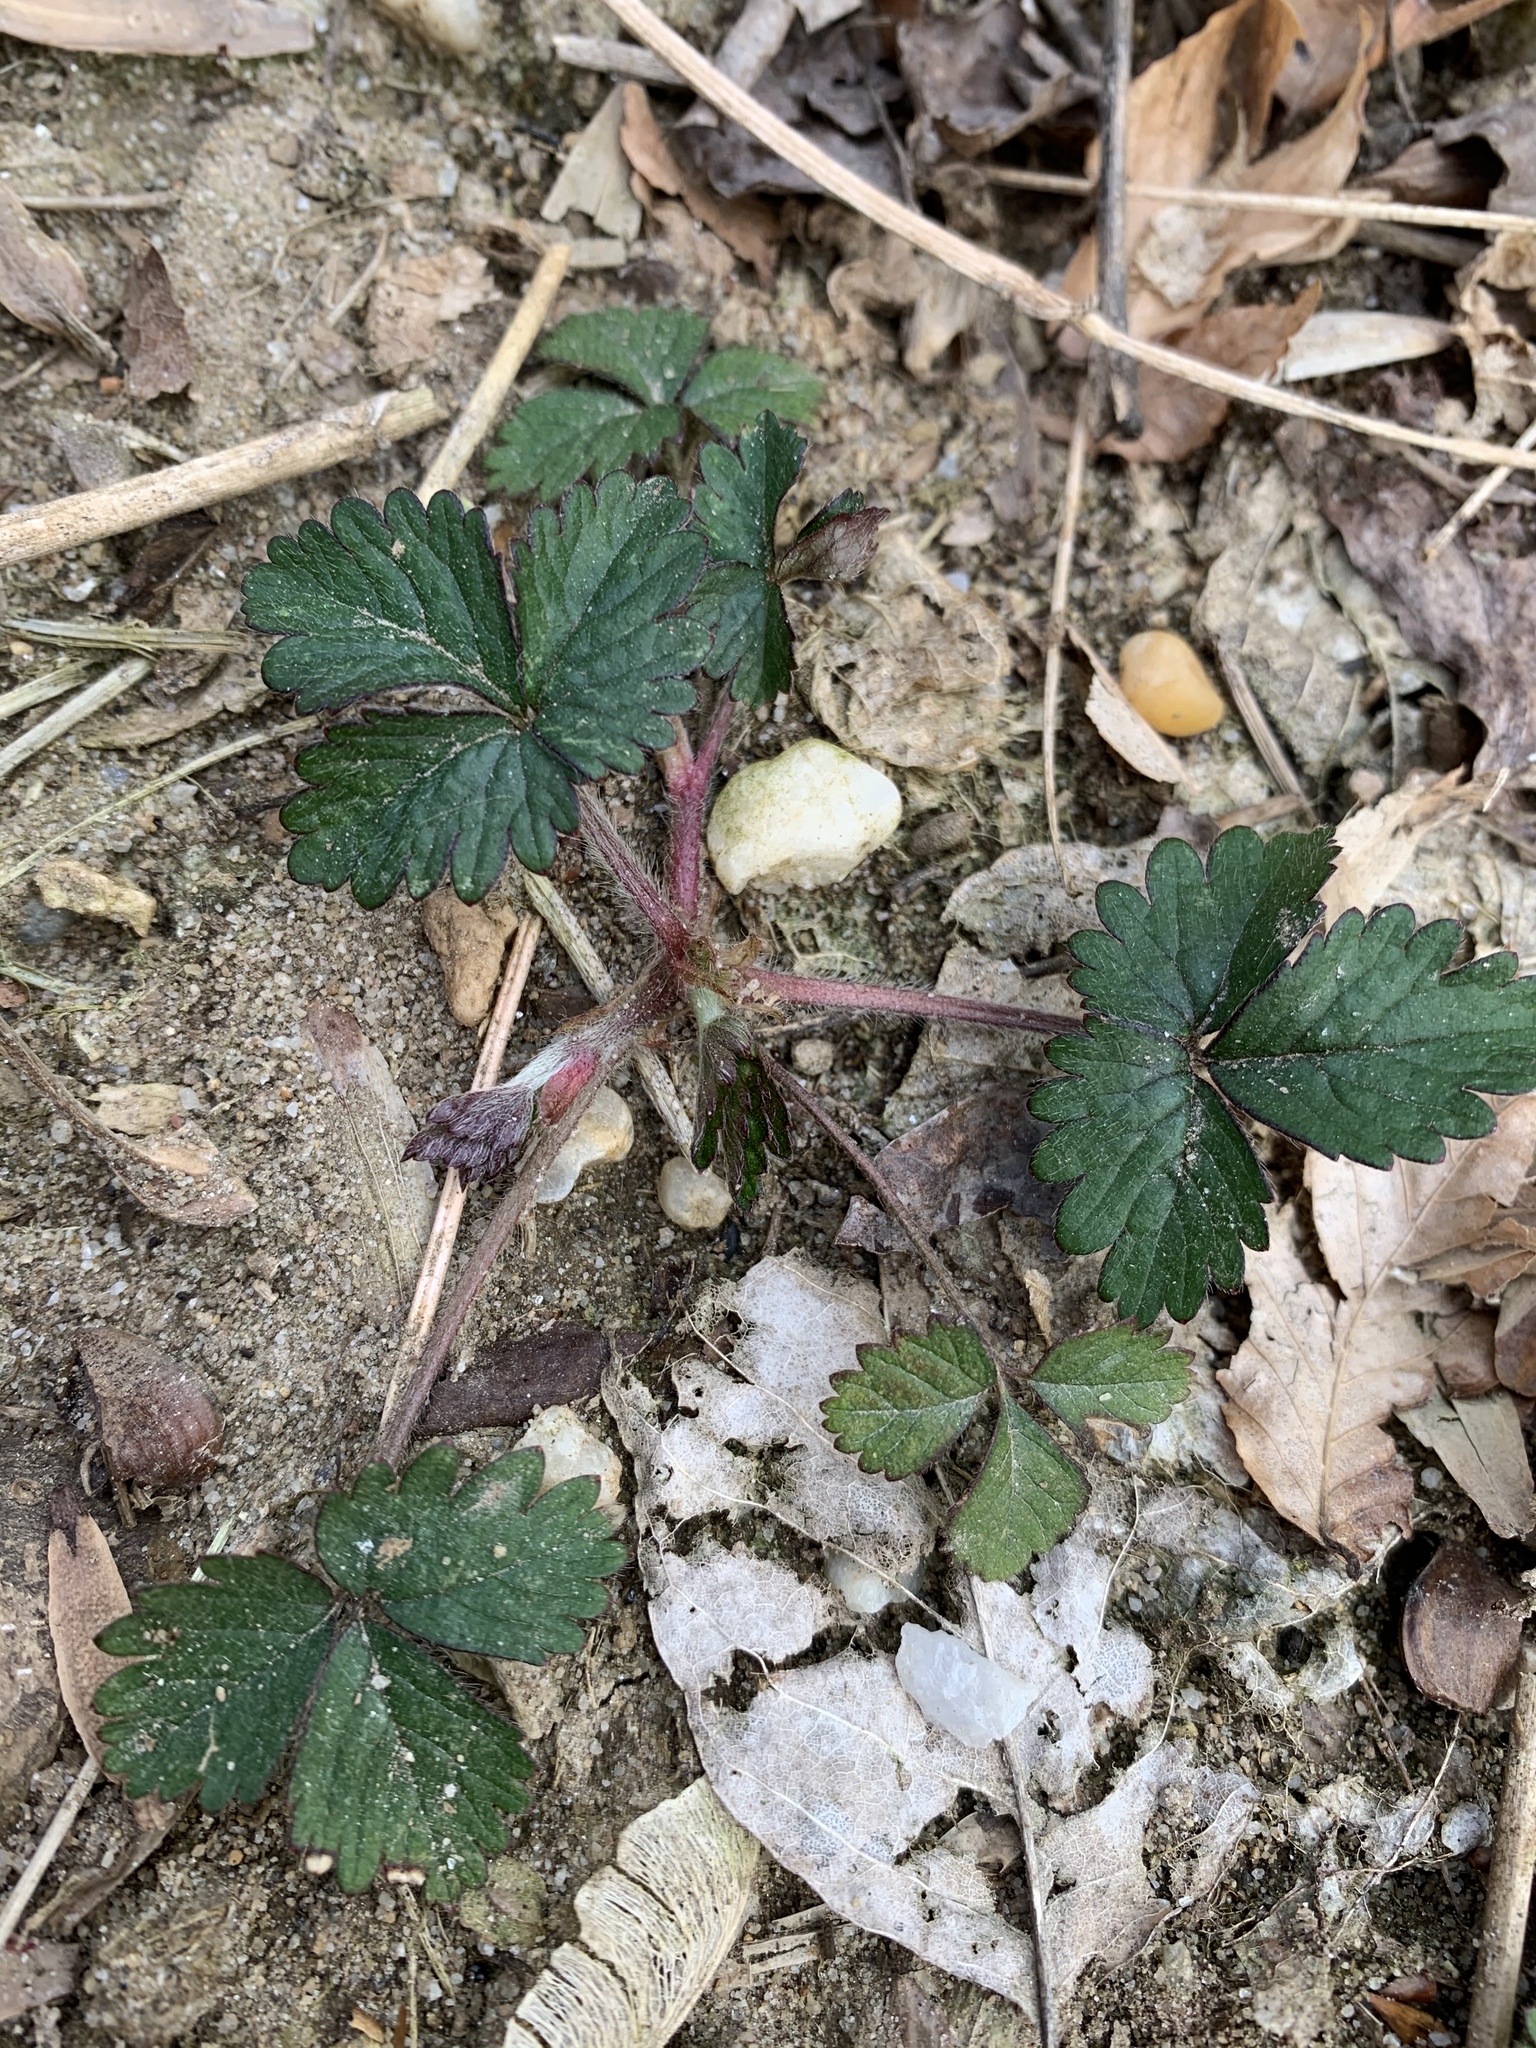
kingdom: Plantae
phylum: Tracheophyta
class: Magnoliopsida
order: Rosales
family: Rosaceae
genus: Potentilla
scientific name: Potentilla indica
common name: Yellow-flowered strawberry
